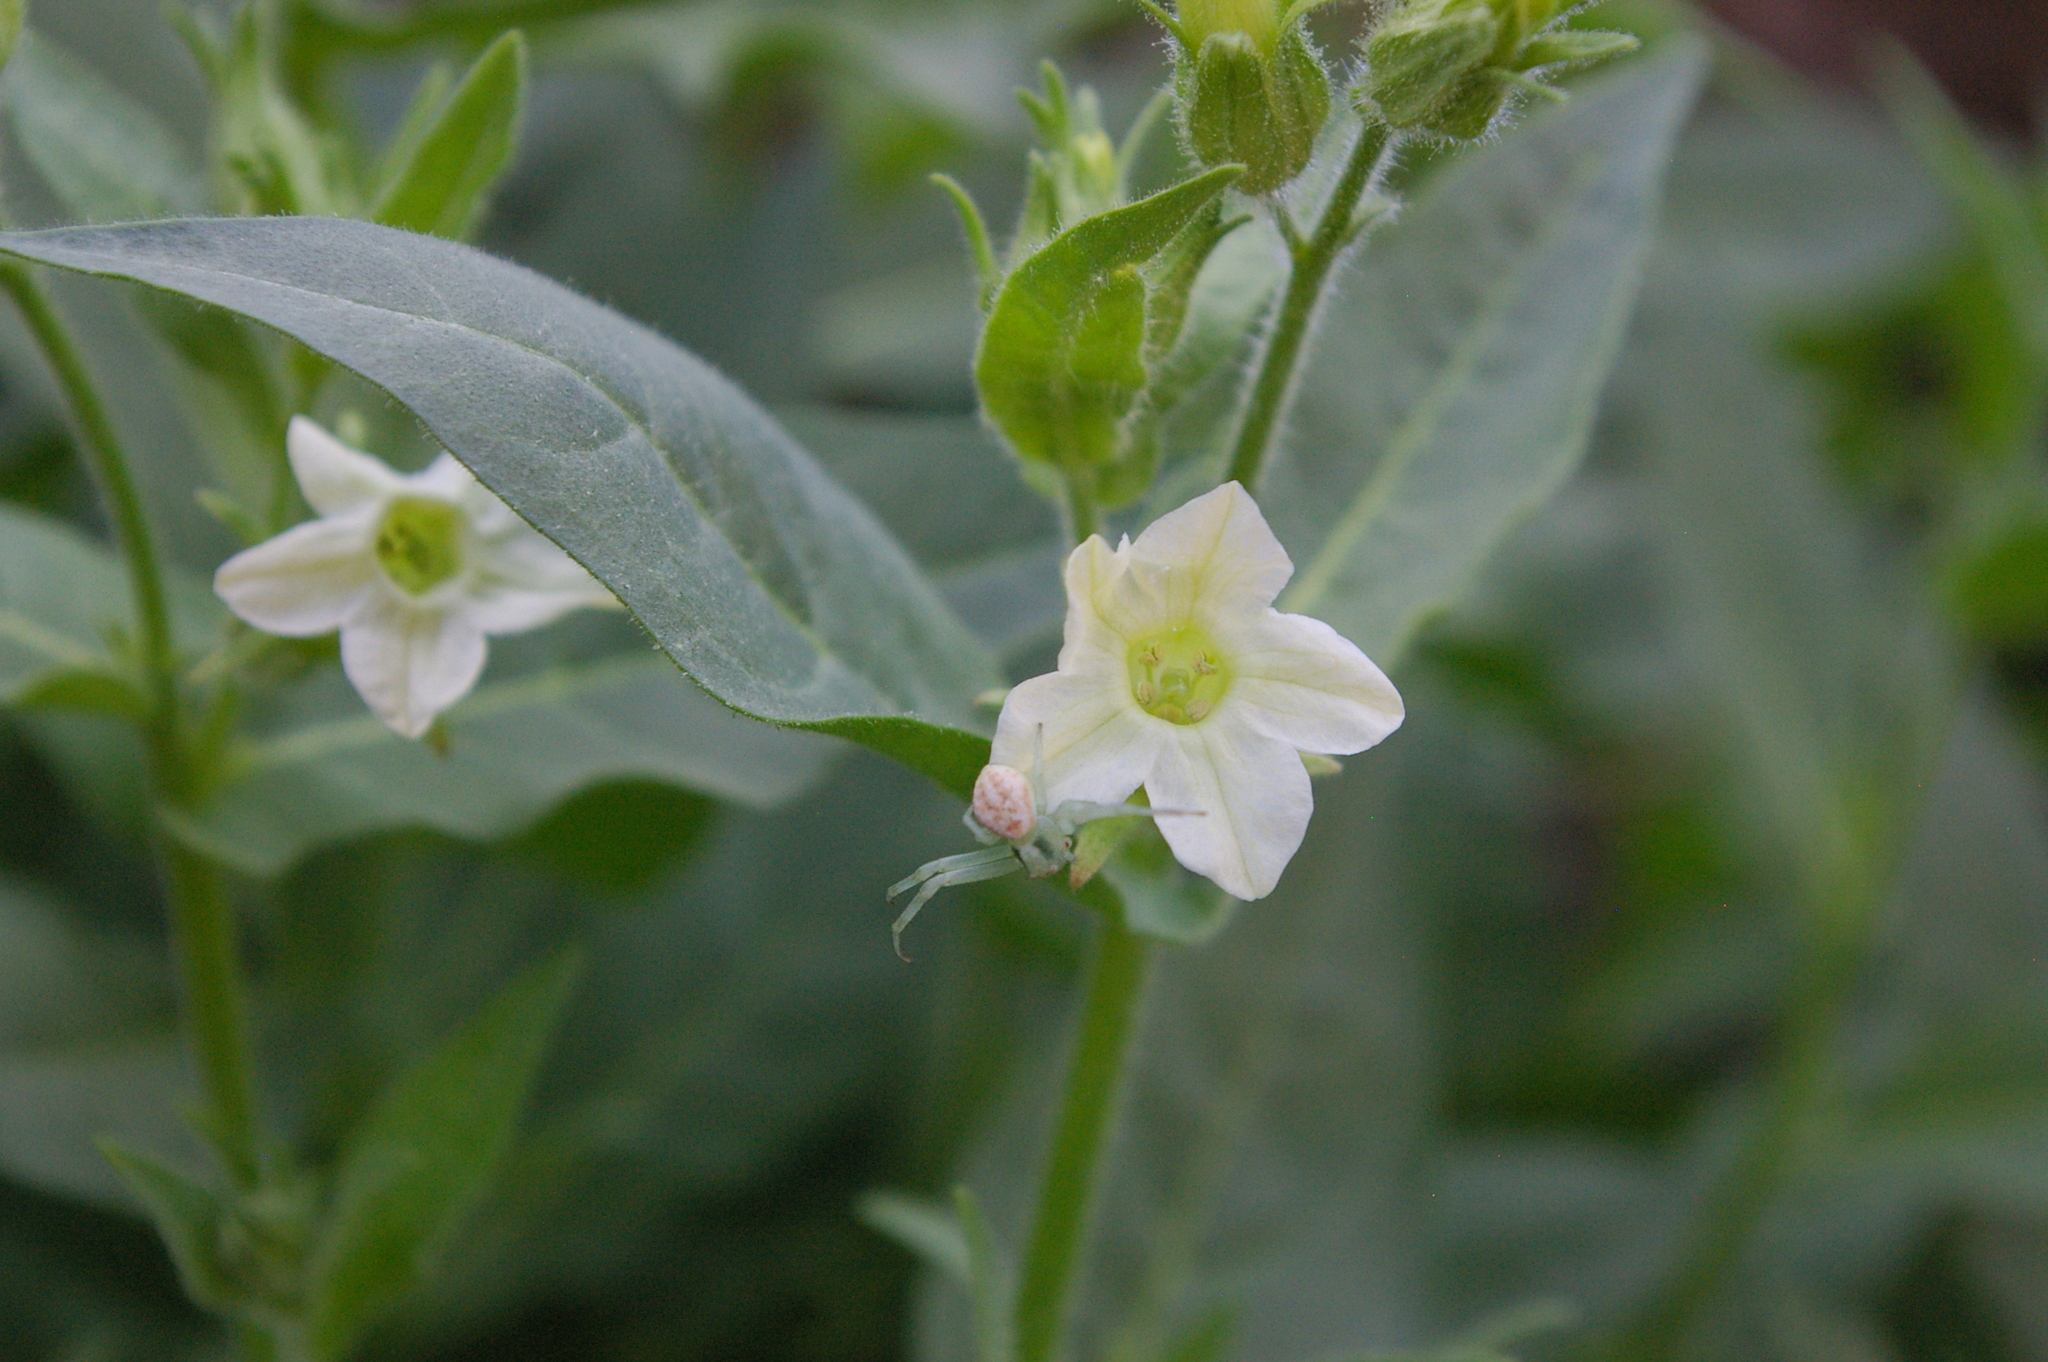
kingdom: Plantae
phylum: Tracheophyta
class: Magnoliopsida
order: Solanales
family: Solanaceae
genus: Nicotiana
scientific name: Nicotiana obtusifolia
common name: Desert tobacco
